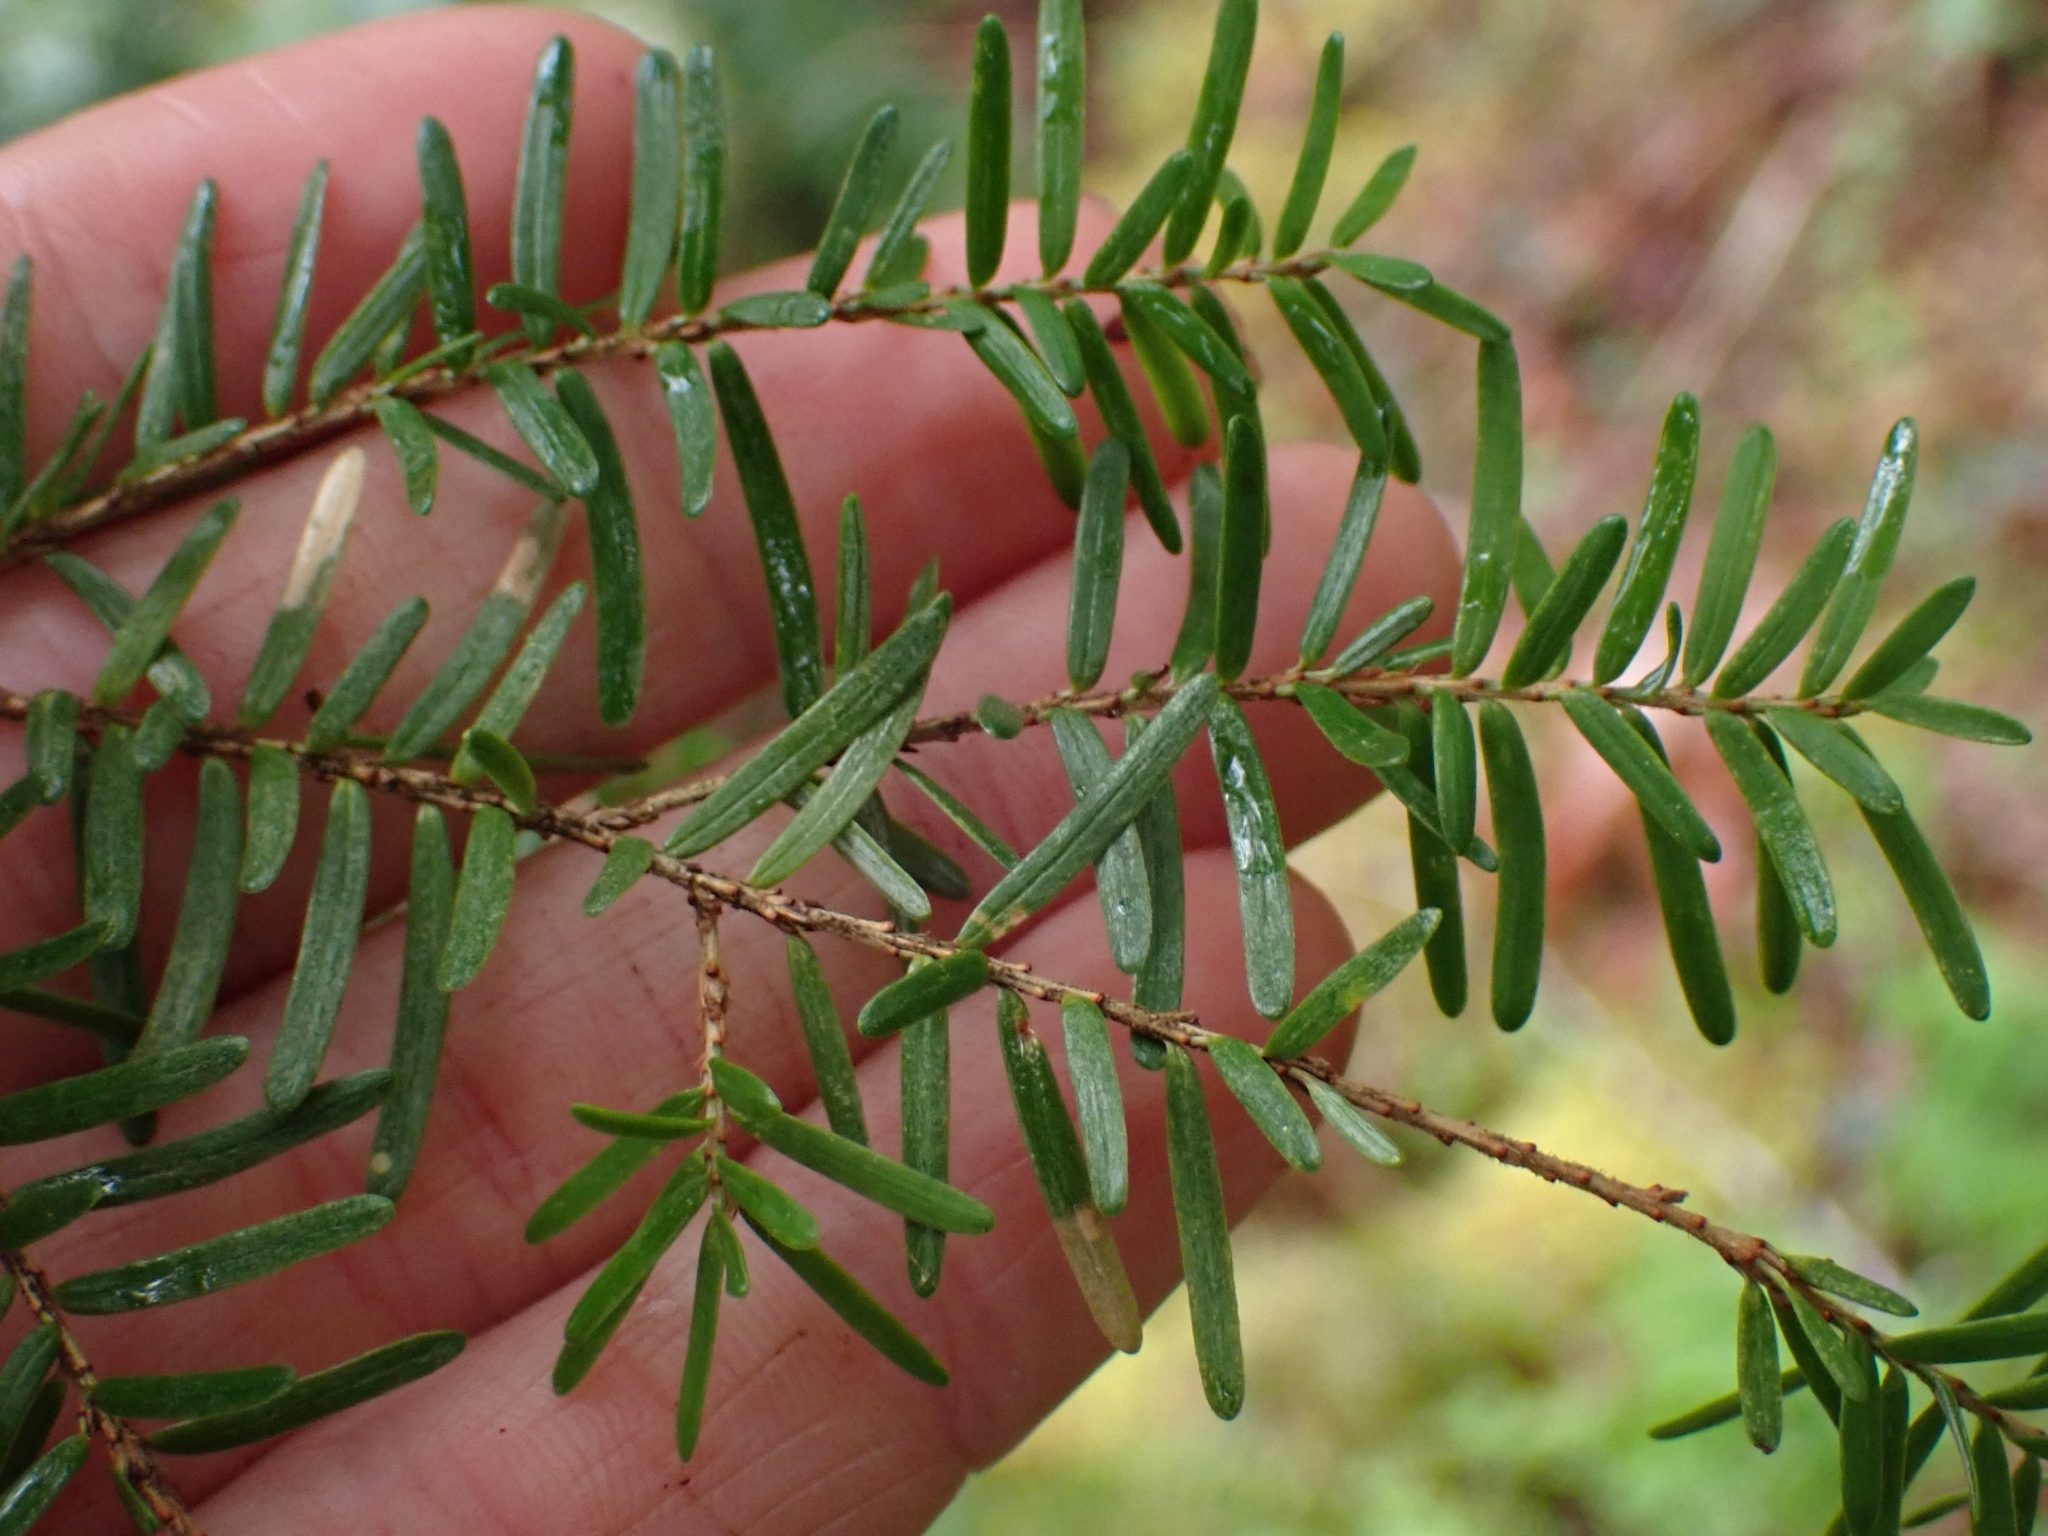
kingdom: Plantae
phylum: Tracheophyta
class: Pinopsida
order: Pinales
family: Pinaceae
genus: Tsuga
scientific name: Tsuga heterophylla
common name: Western hemlock
